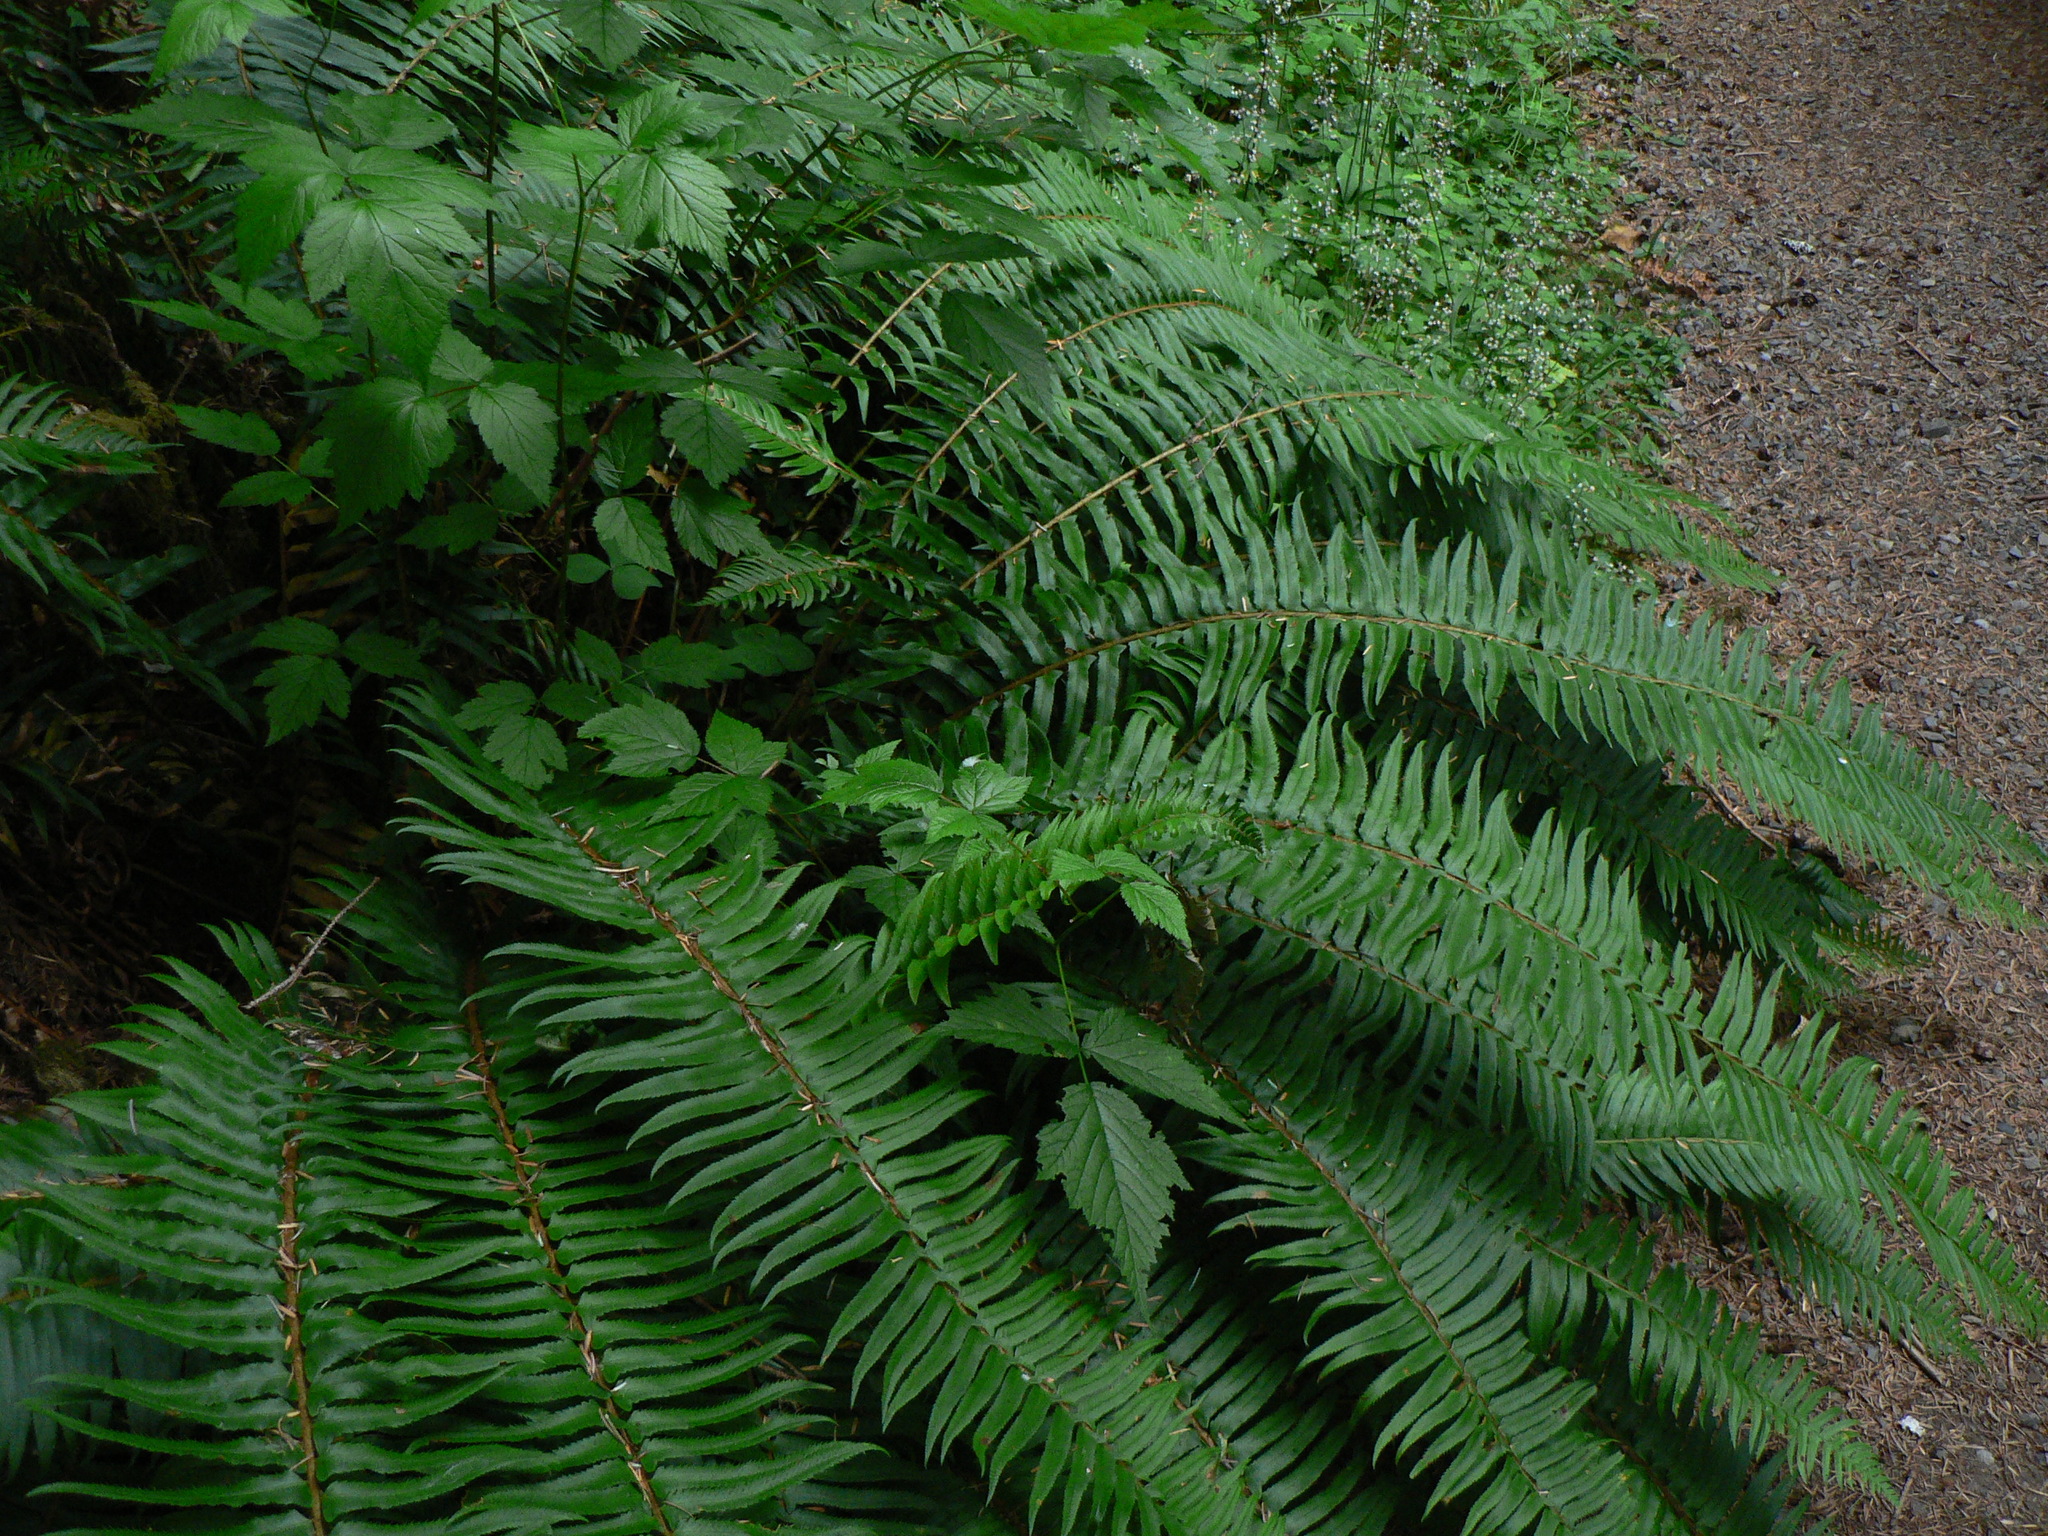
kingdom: Plantae
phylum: Tracheophyta
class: Polypodiopsida
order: Polypodiales
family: Dryopteridaceae
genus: Polystichum
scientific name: Polystichum munitum
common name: Western sword-fern
